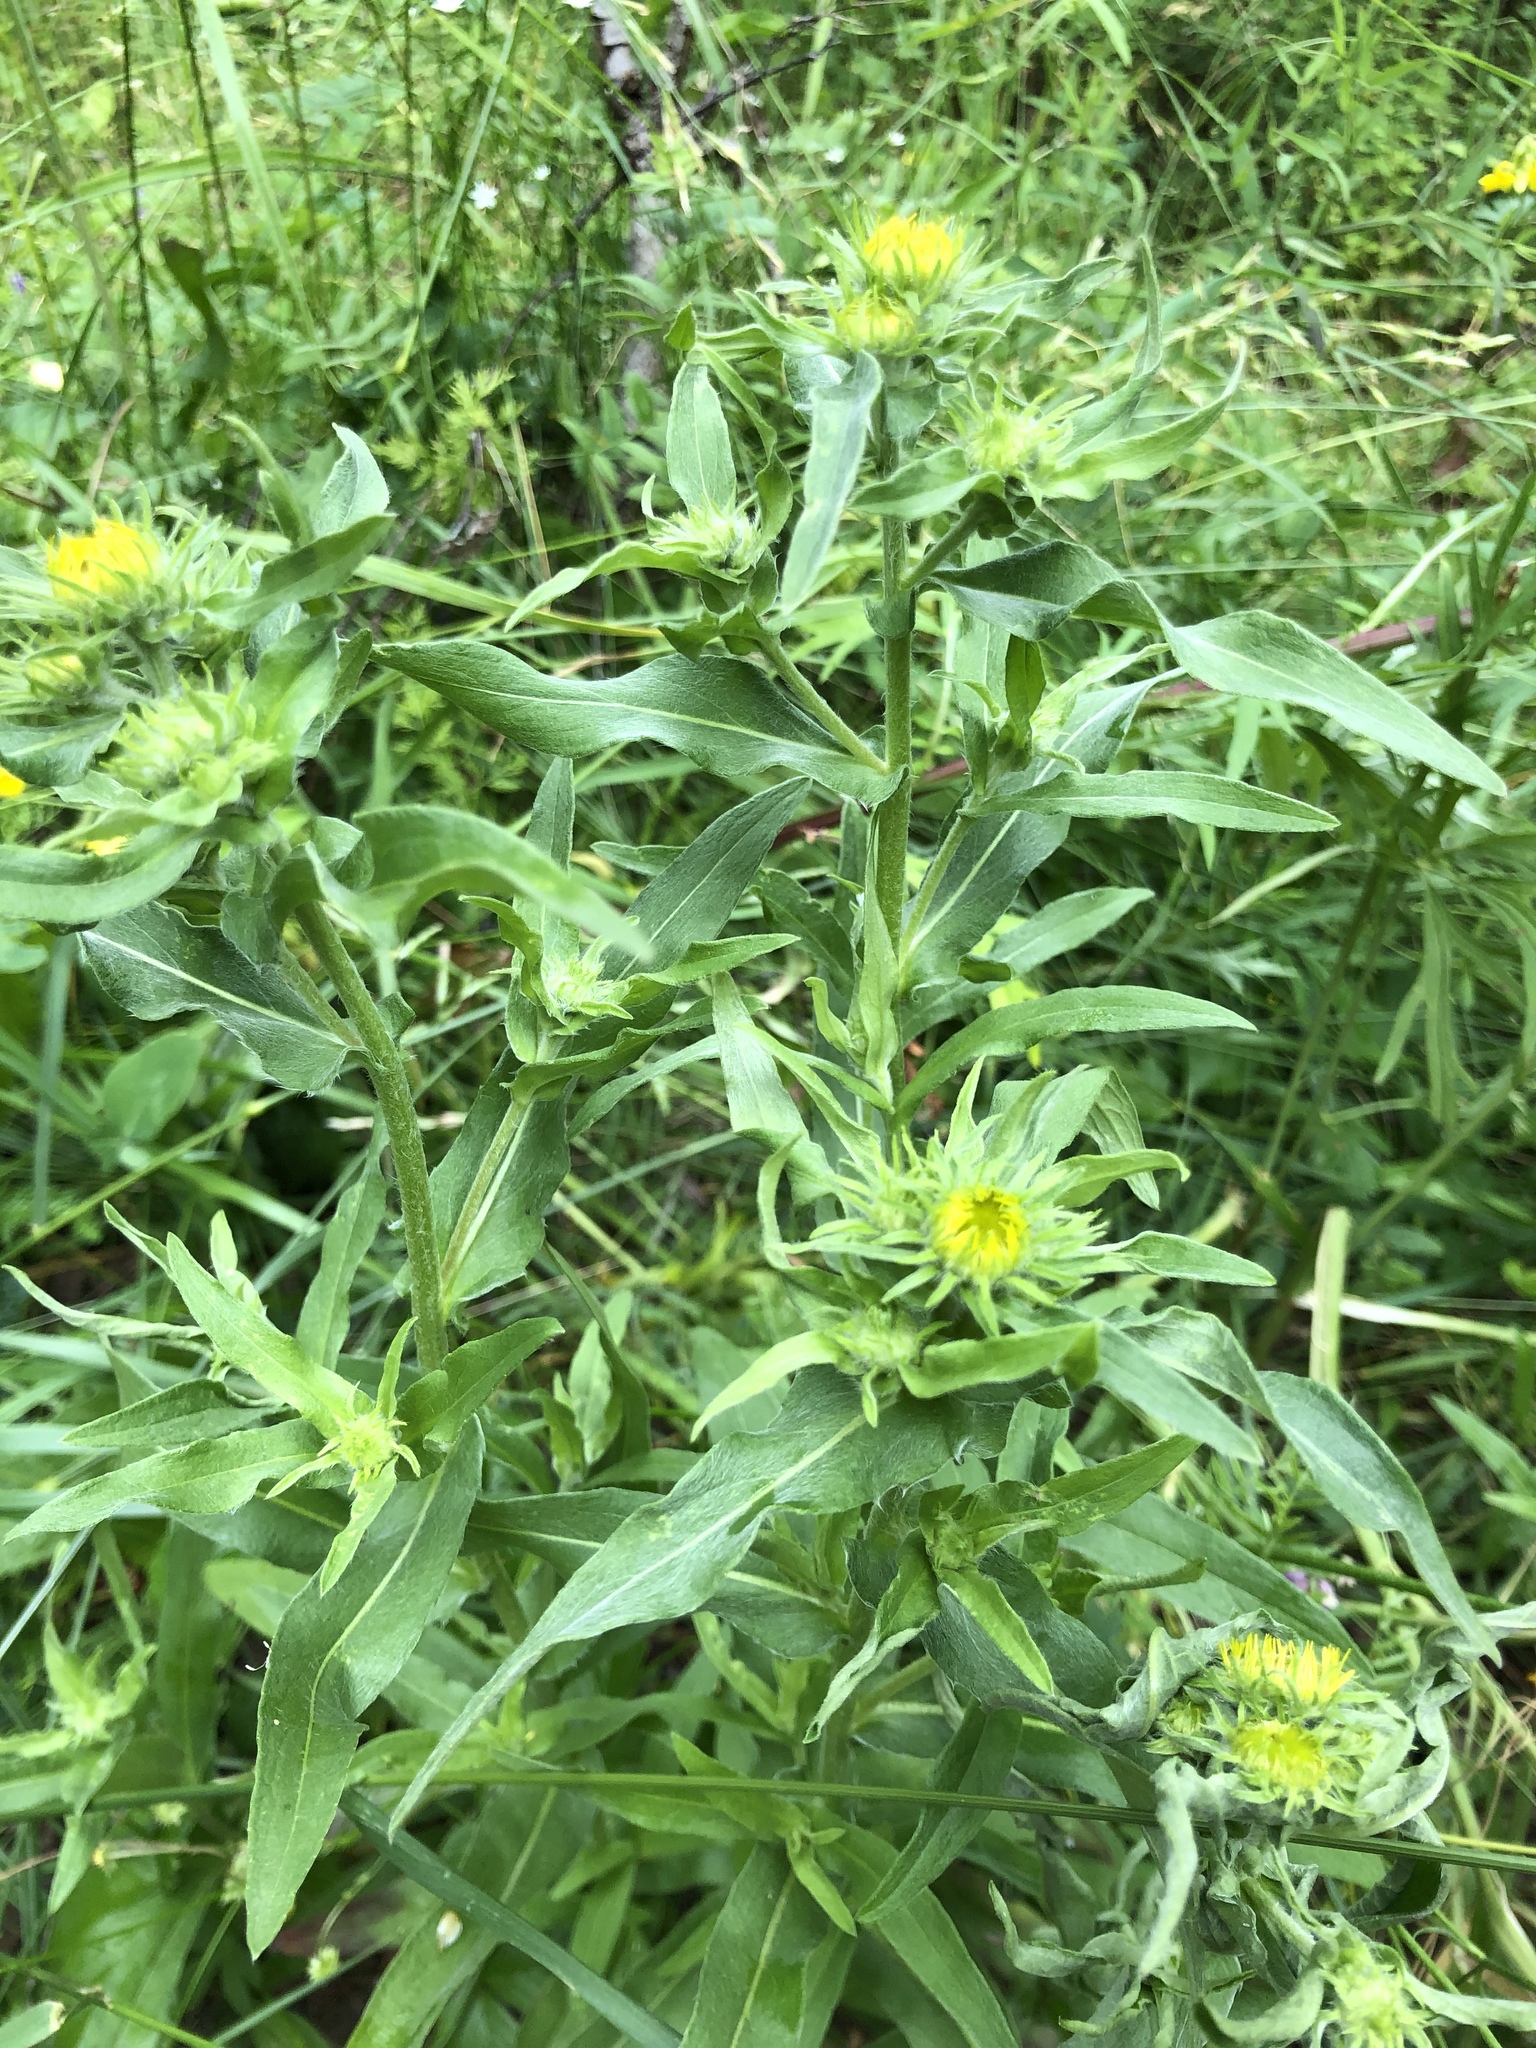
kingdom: Plantae
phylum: Tracheophyta
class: Magnoliopsida
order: Asterales
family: Asteraceae
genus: Pentanema
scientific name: Pentanema britannicum
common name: British elecampane
